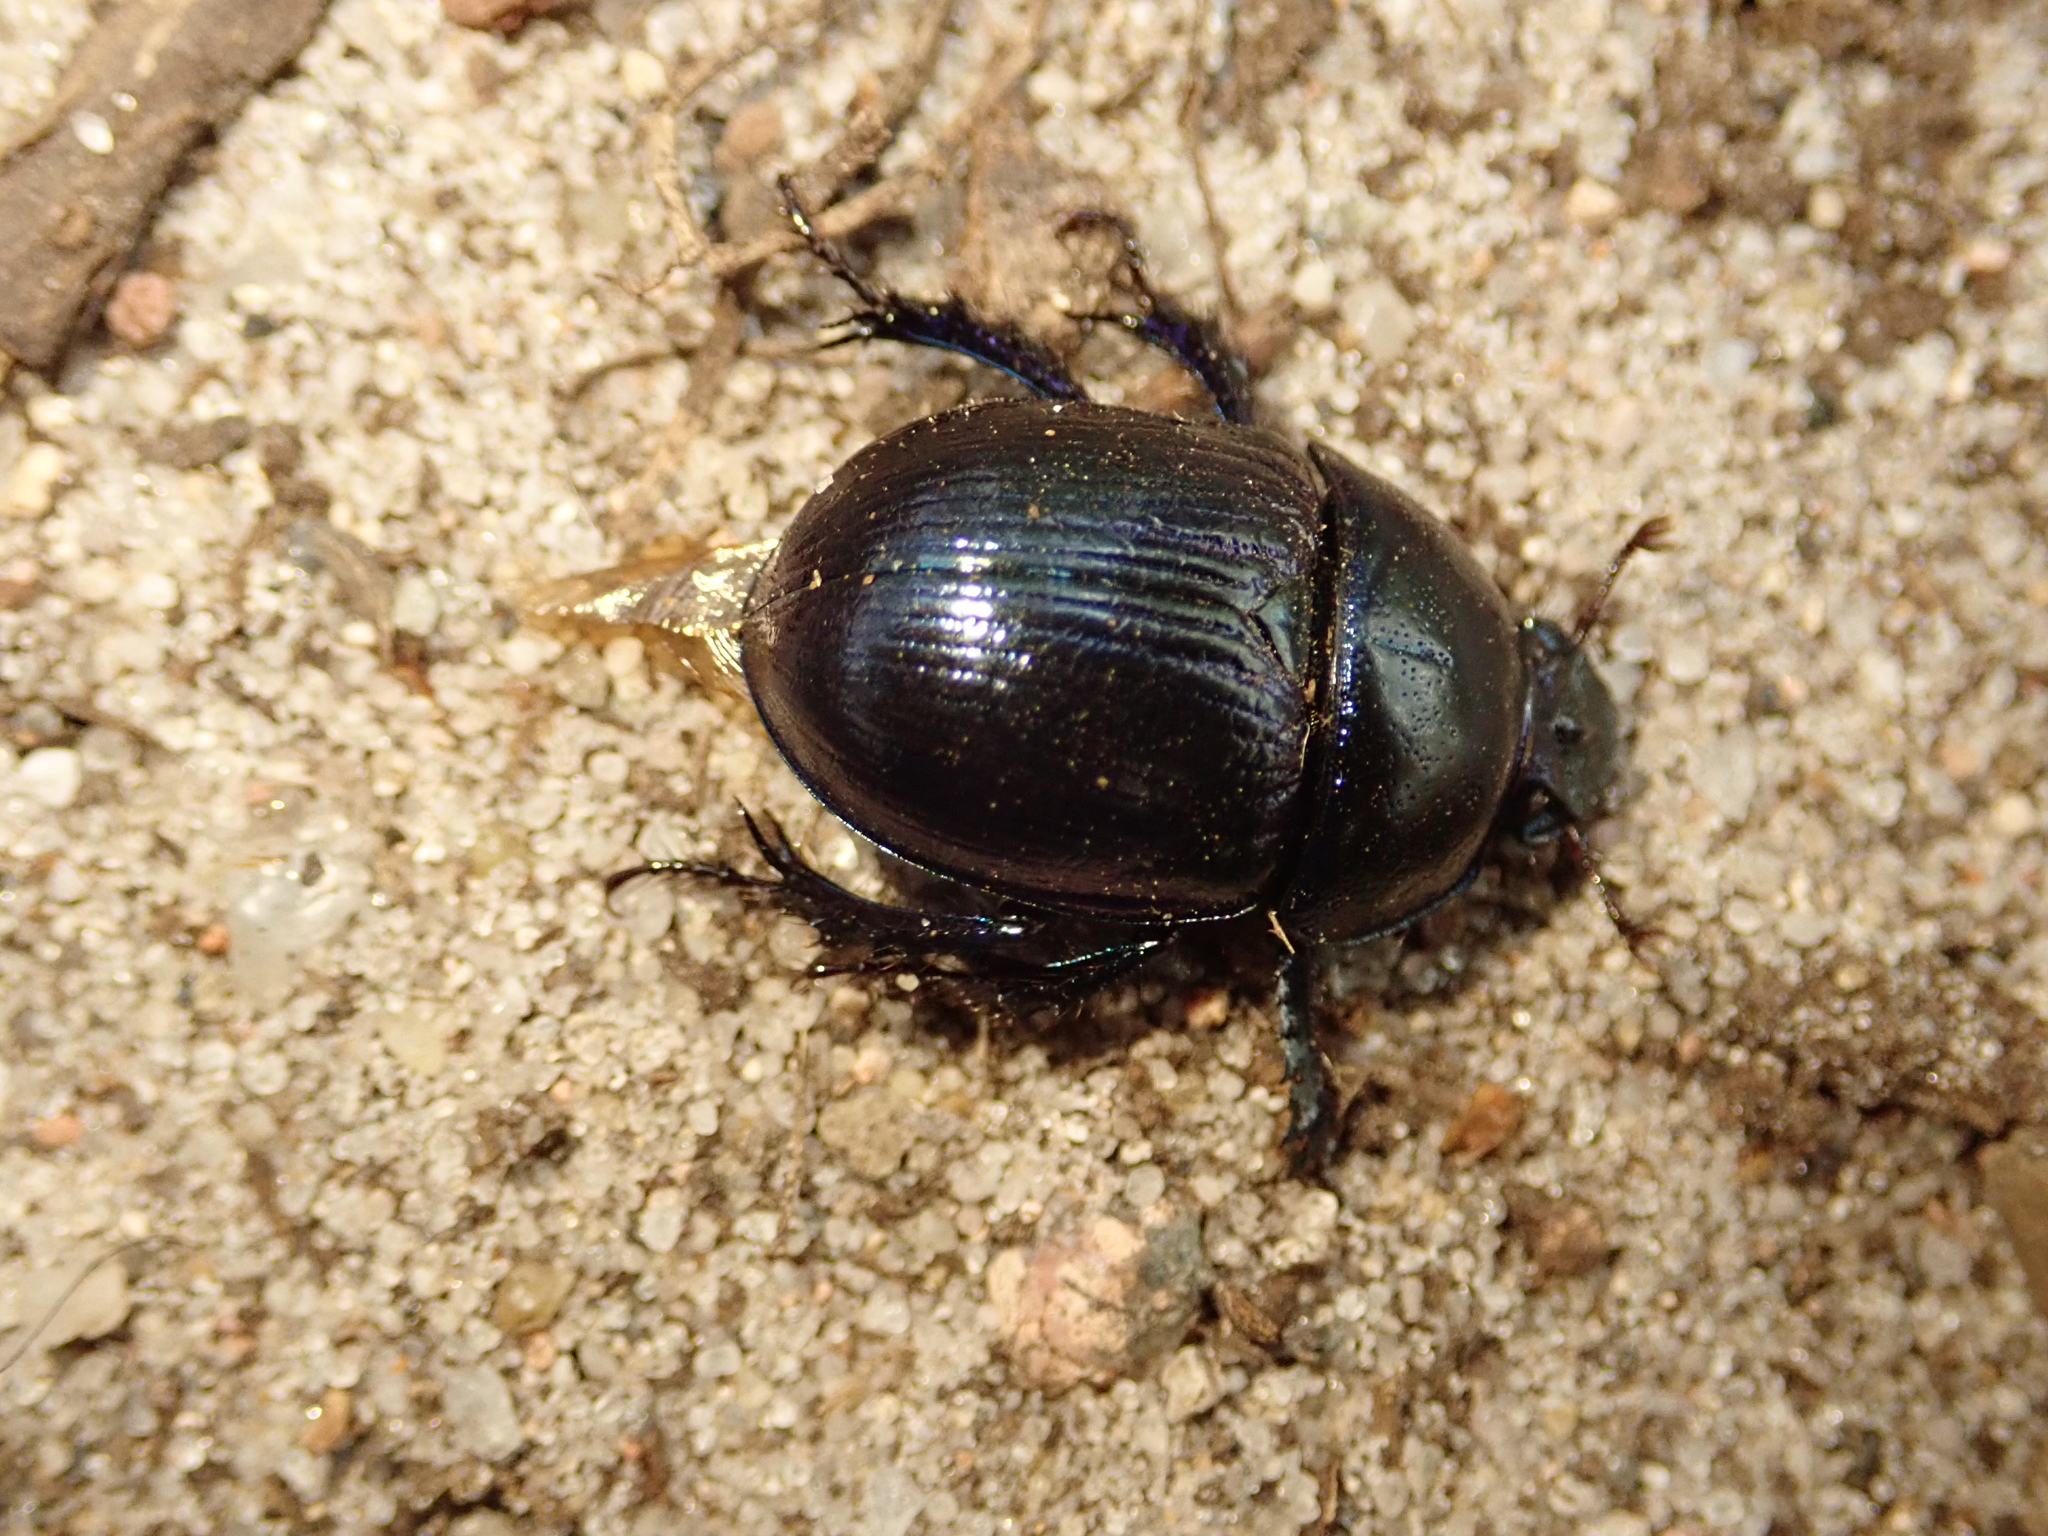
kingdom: Animalia
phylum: Arthropoda
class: Insecta
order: Coleoptera
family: Geotrupidae
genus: Anoplotrupes
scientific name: Anoplotrupes stercorosus
